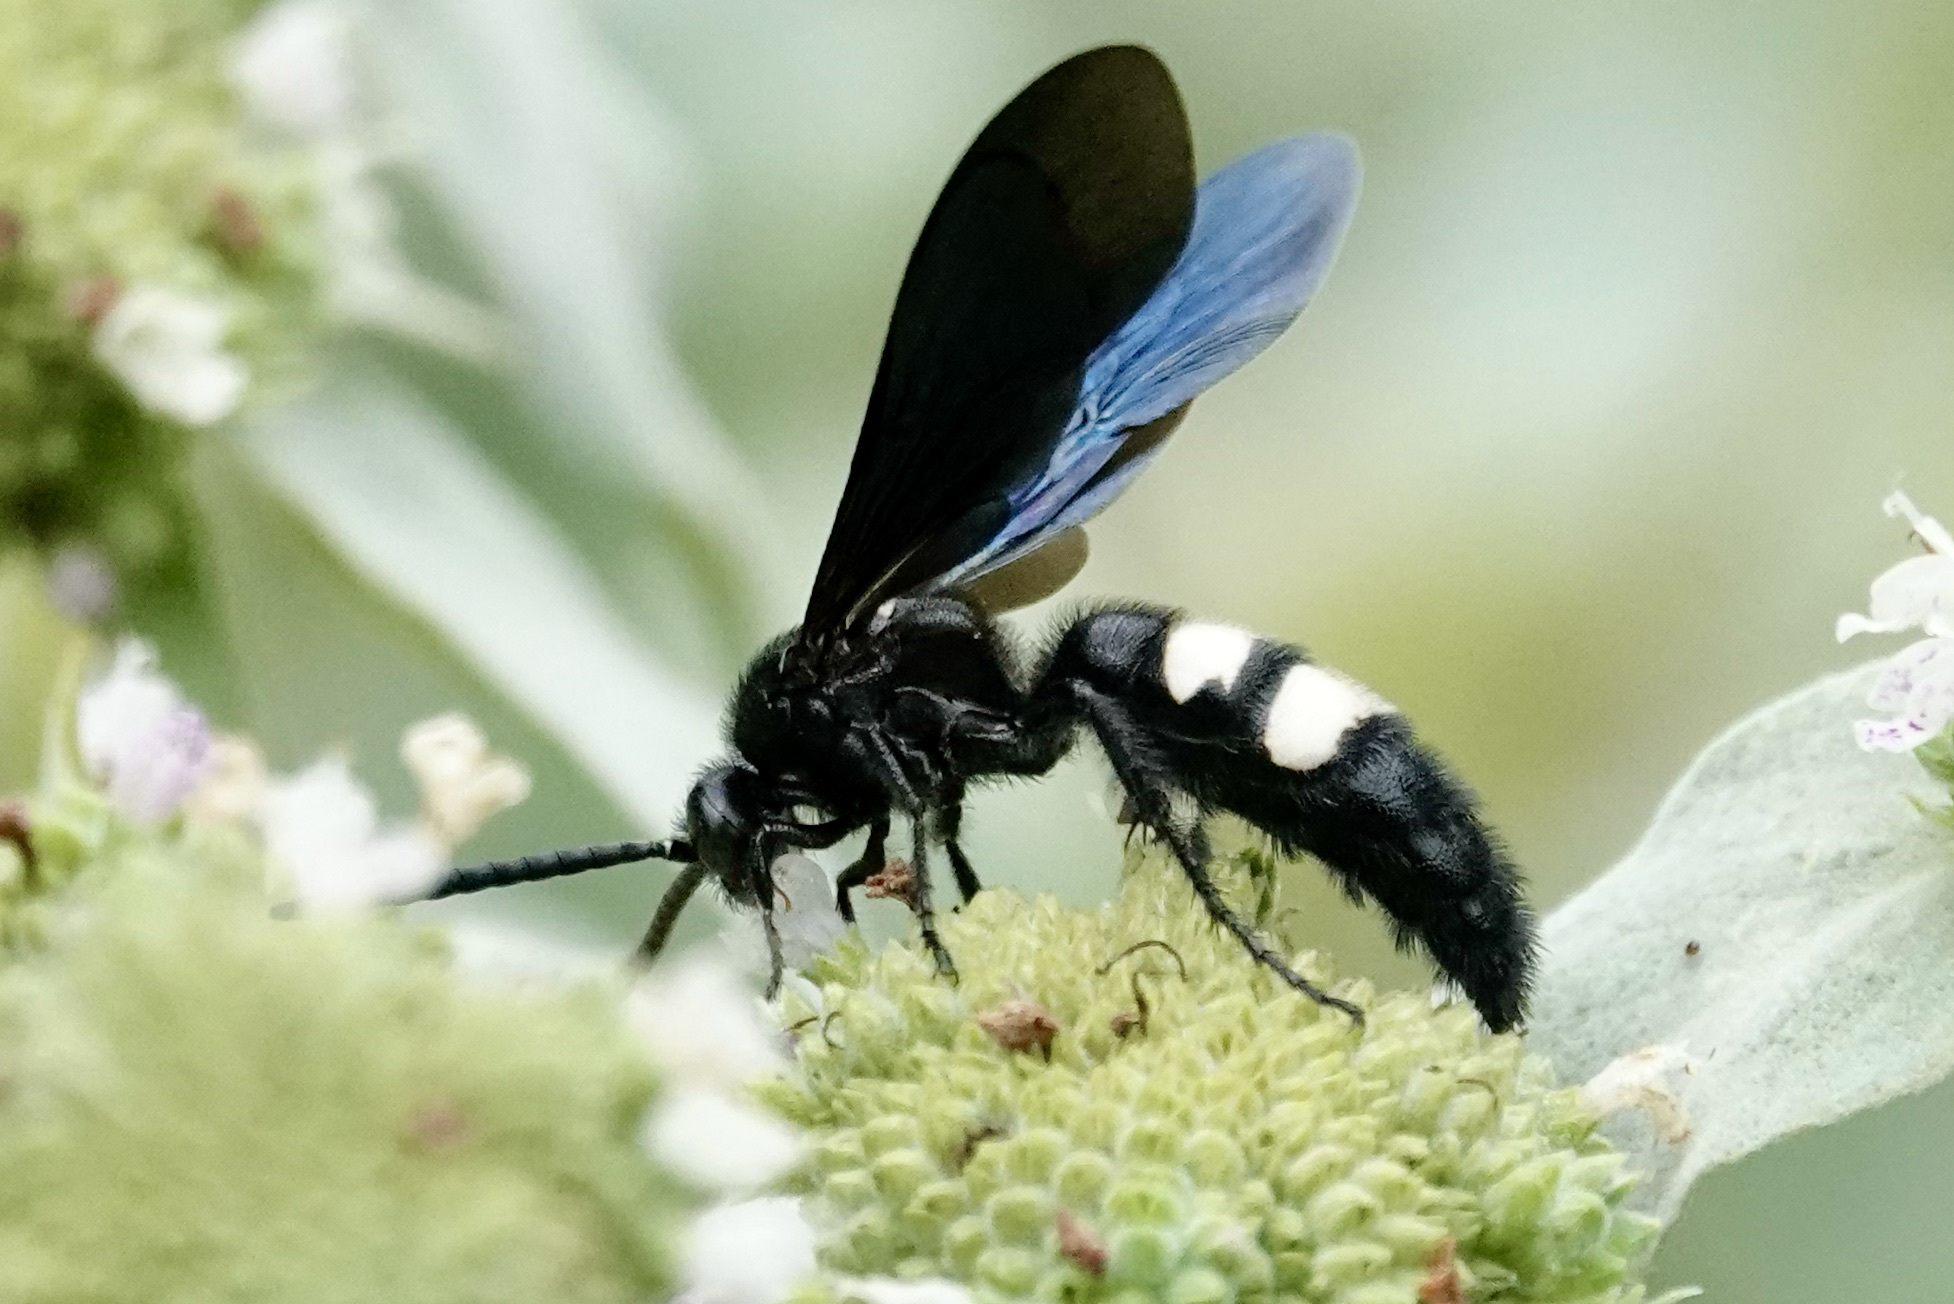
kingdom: Animalia
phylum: Arthropoda
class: Insecta
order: Hymenoptera
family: Scoliidae
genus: Scolia
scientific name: Scolia bicincta
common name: Double-banded scoliid wasp
